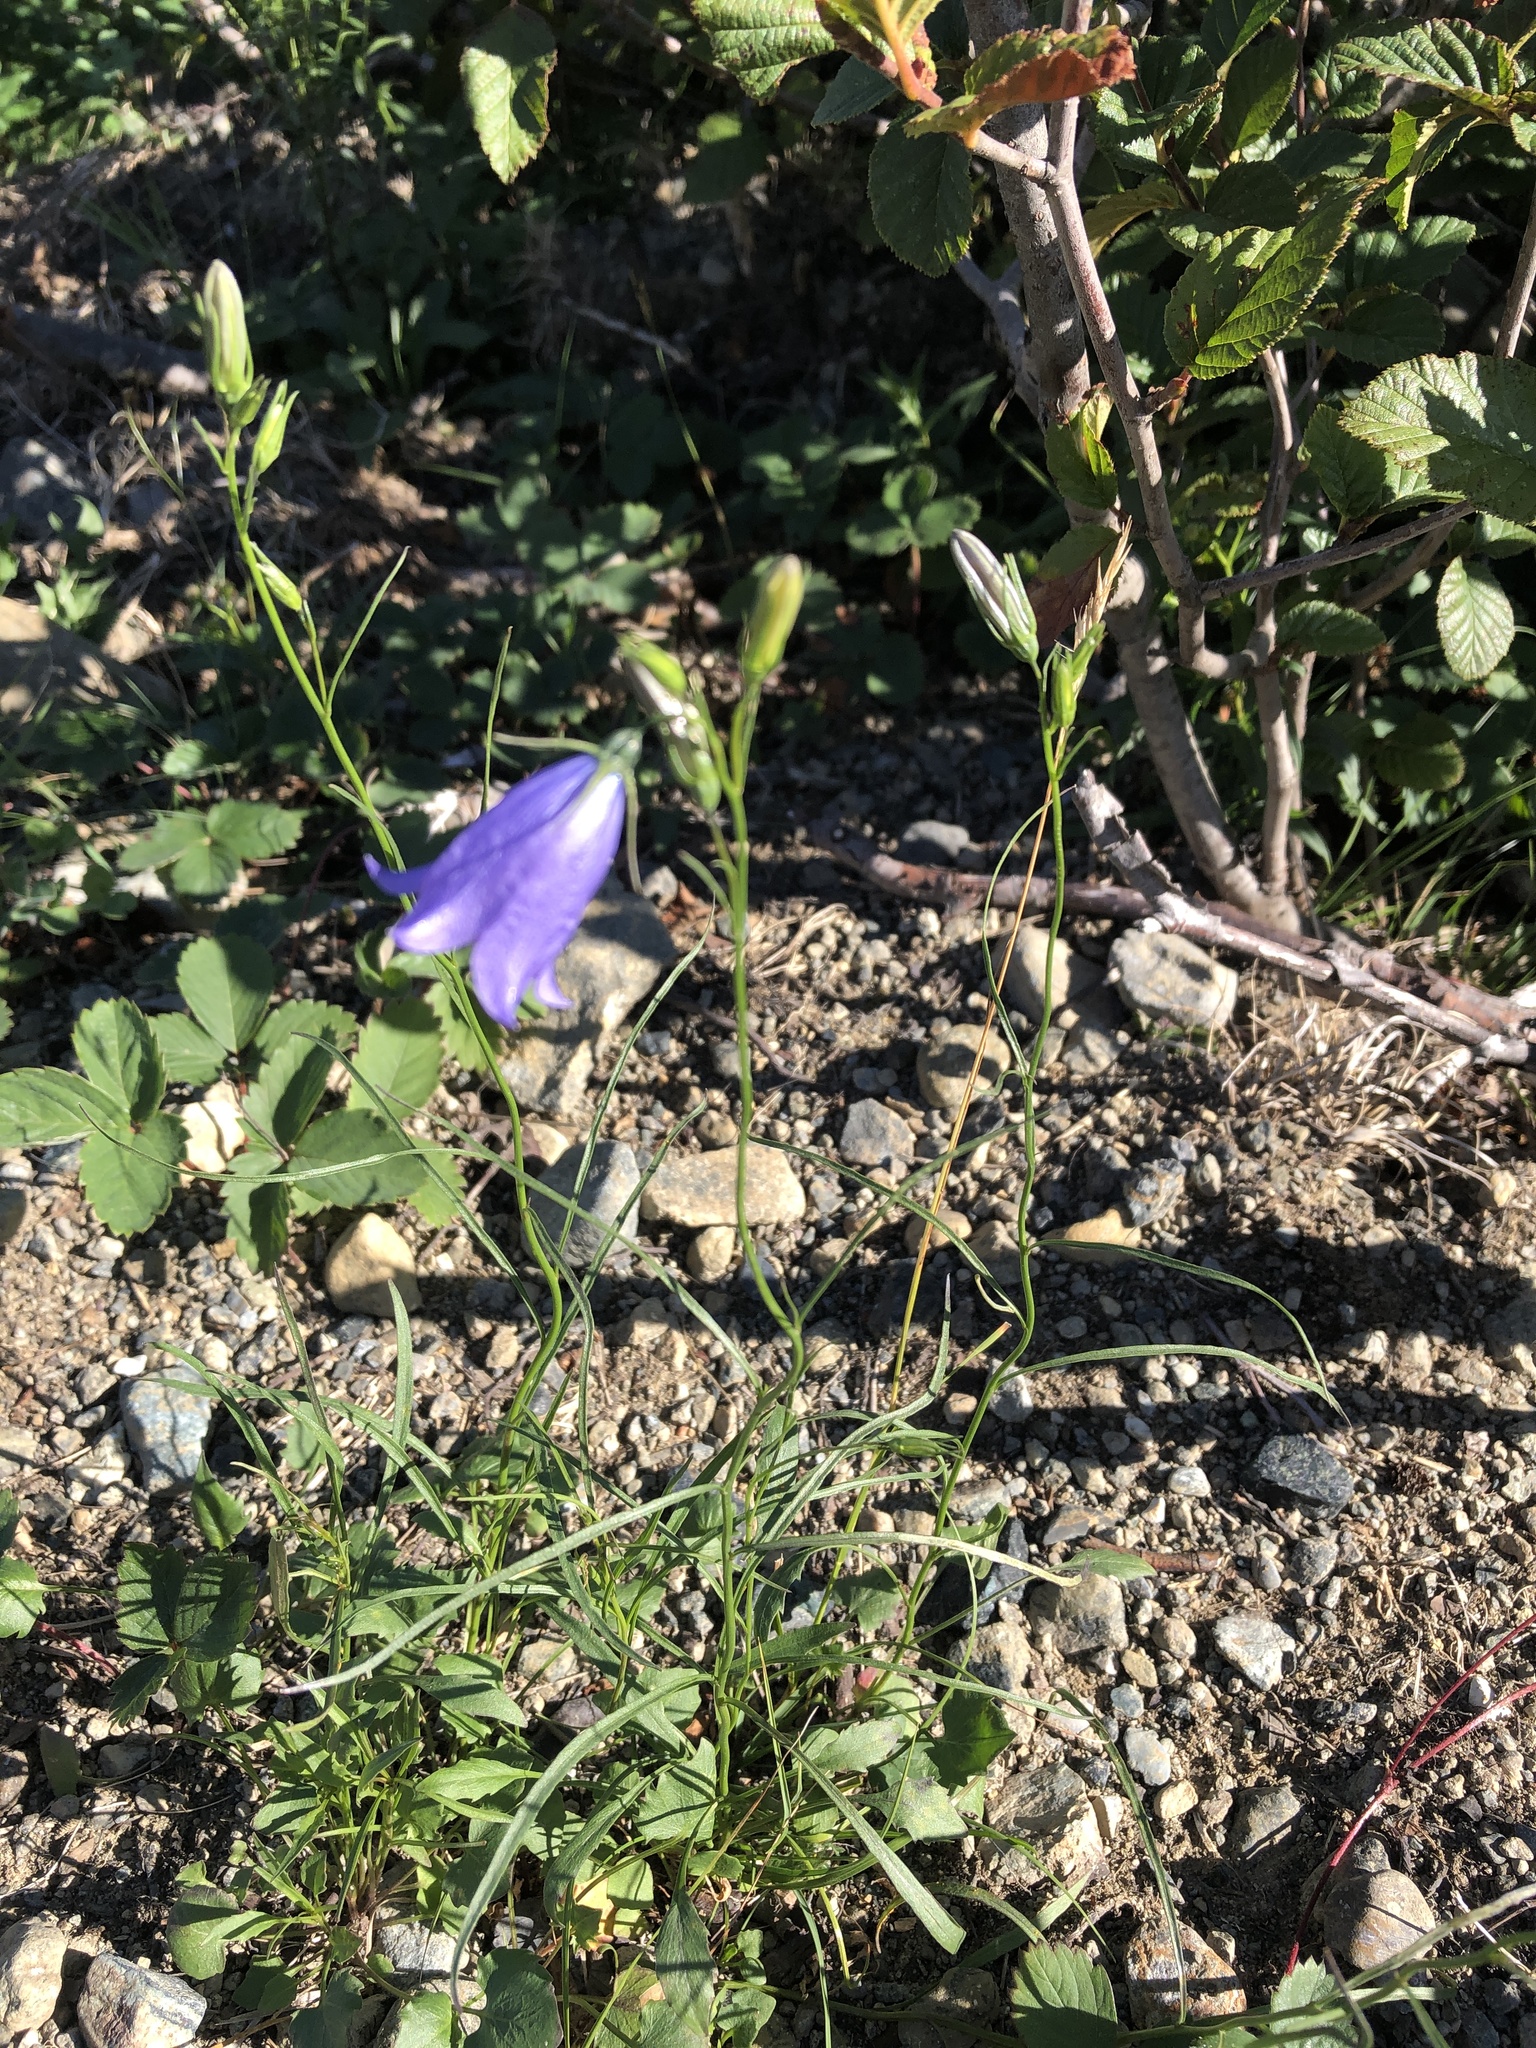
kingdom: Plantae
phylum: Tracheophyta
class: Magnoliopsida
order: Asterales
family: Campanulaceae
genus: Campanula
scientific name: Campanula giesekiana
